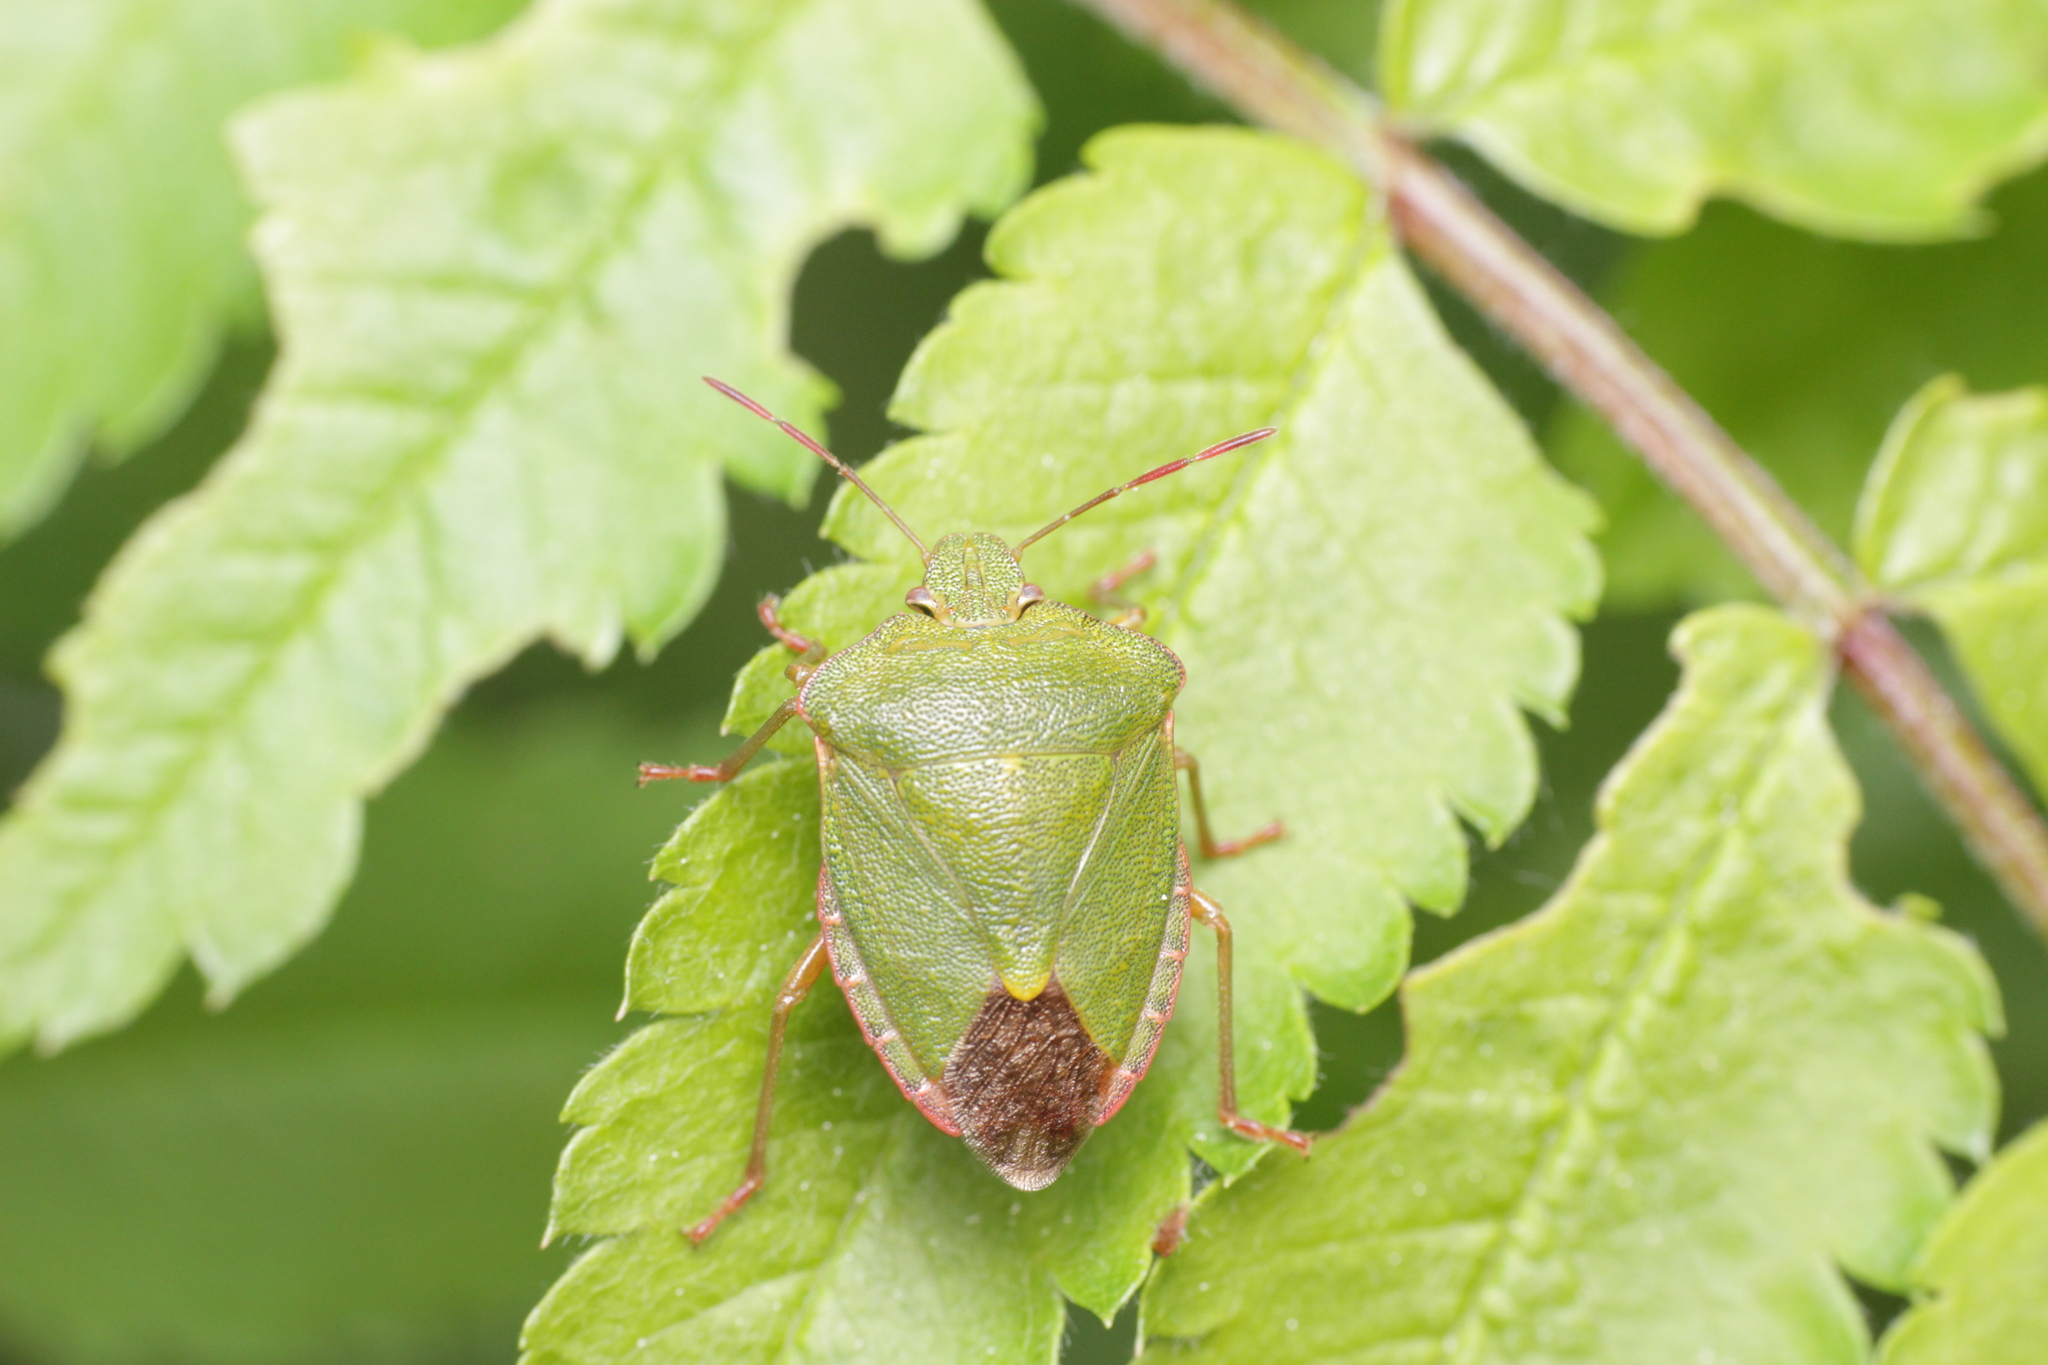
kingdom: Animalia
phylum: Arthropoda
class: Insecta
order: Hemiptera
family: Pentatomidae
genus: Palomena
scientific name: Palomena prasina
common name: Green shieldbug
